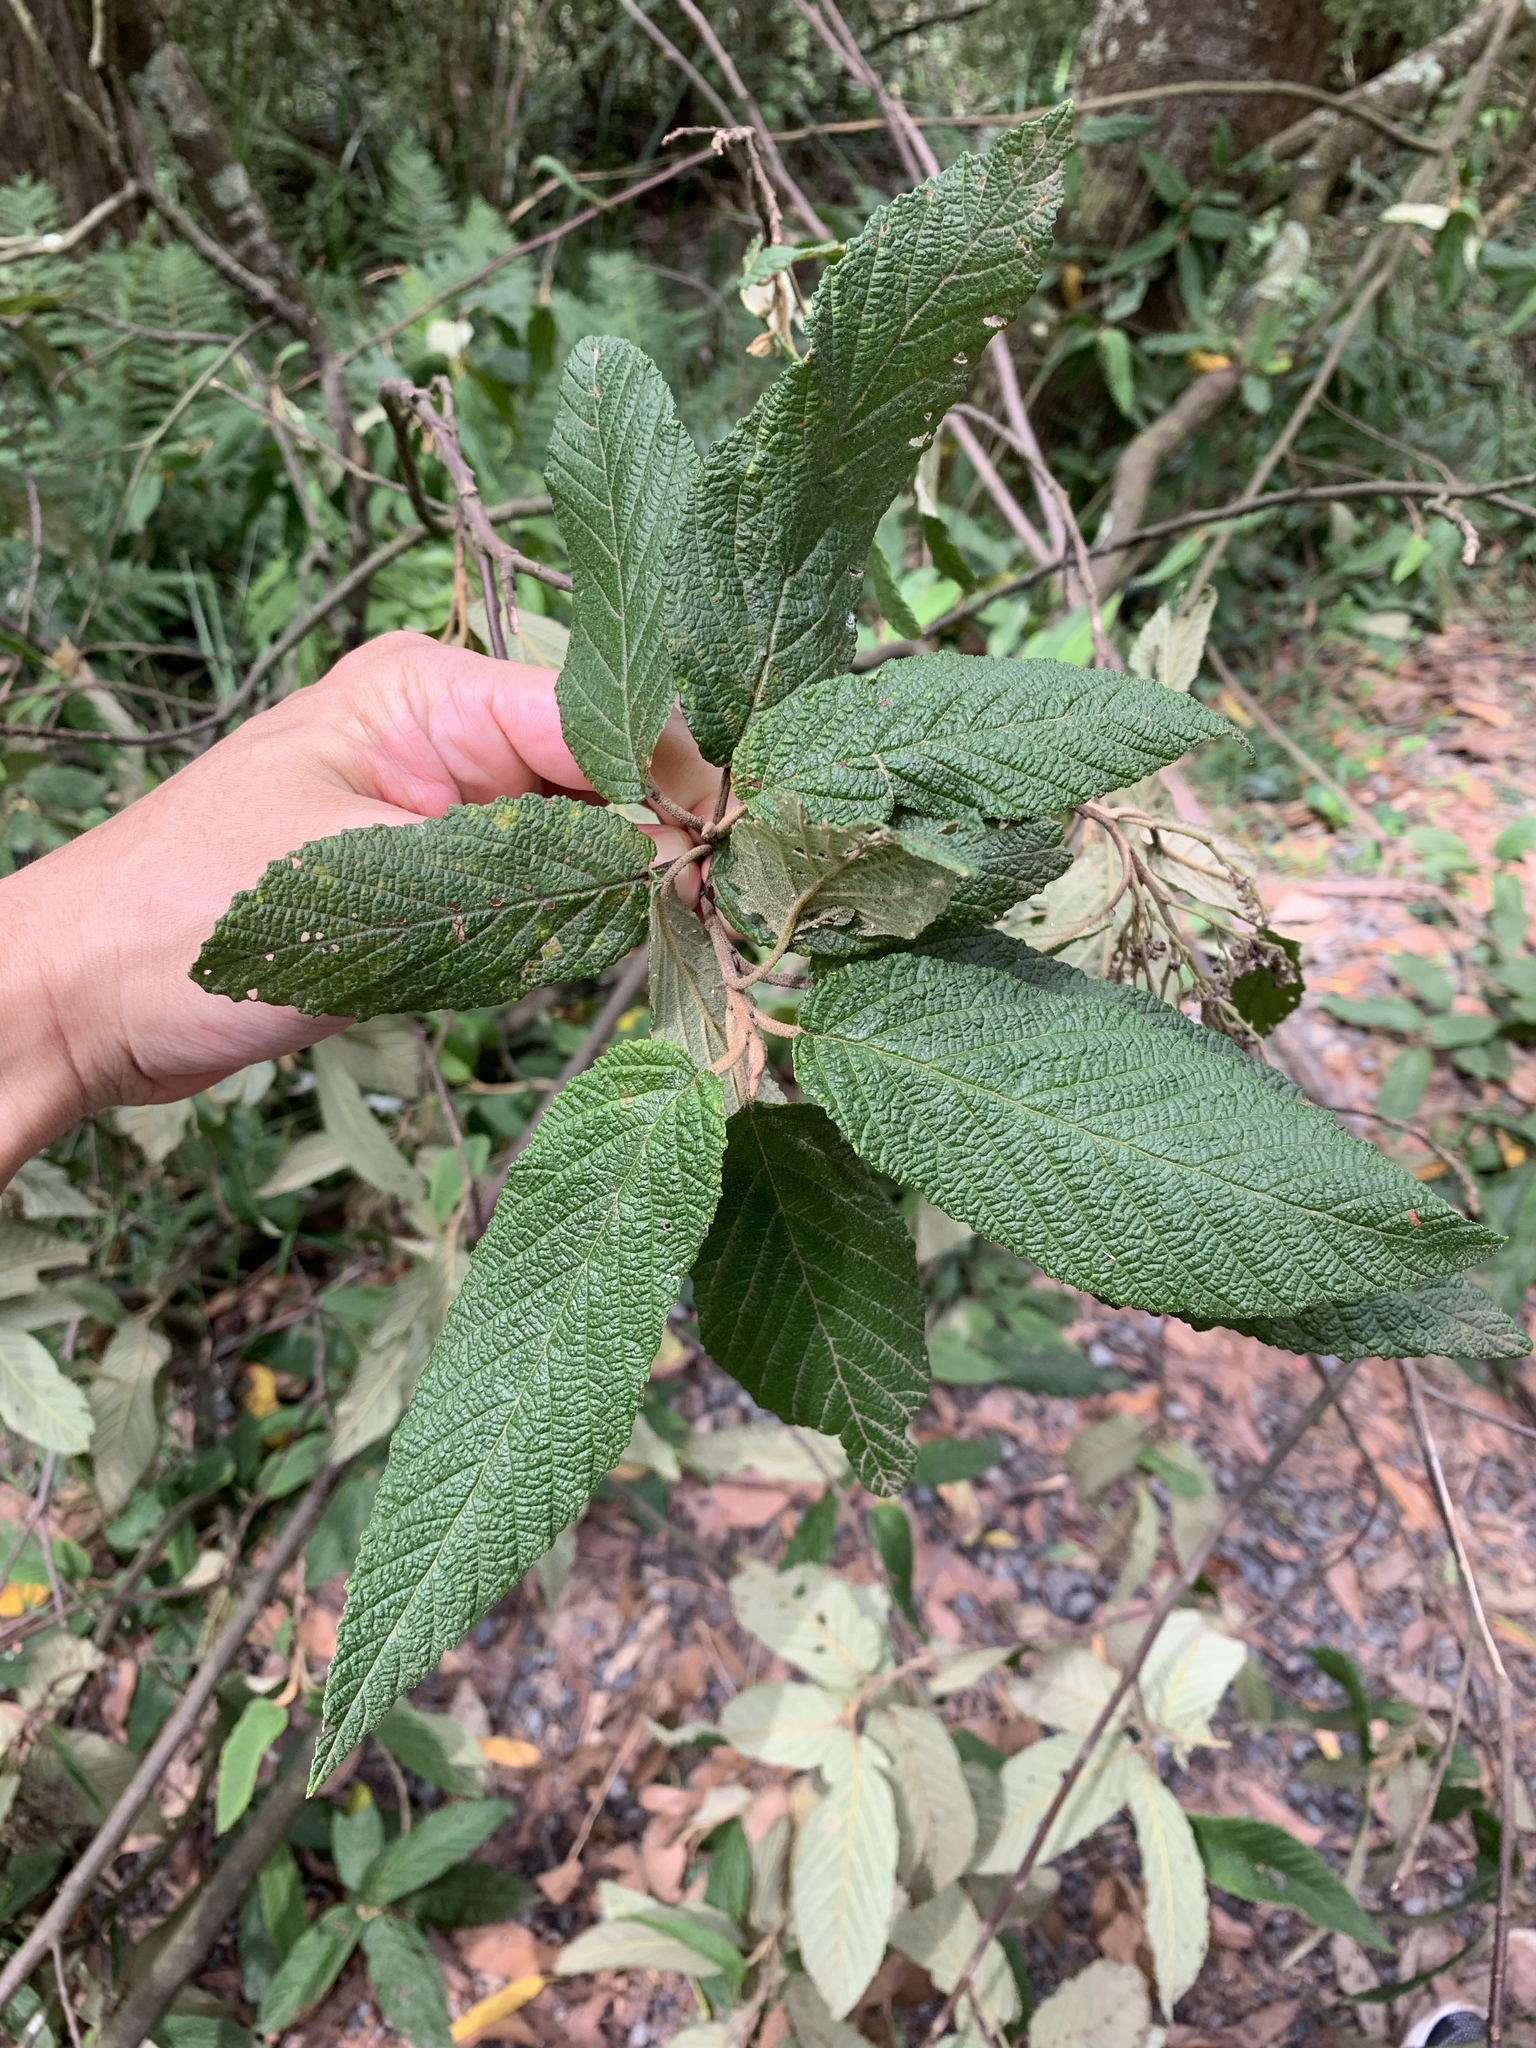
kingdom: Plantae
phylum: Tracheophyta
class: Magnoliopsida
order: Rosales
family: Rhamnaceae
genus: Pomaderris
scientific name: Pomaderris aspera
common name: Hazel pomaderris
